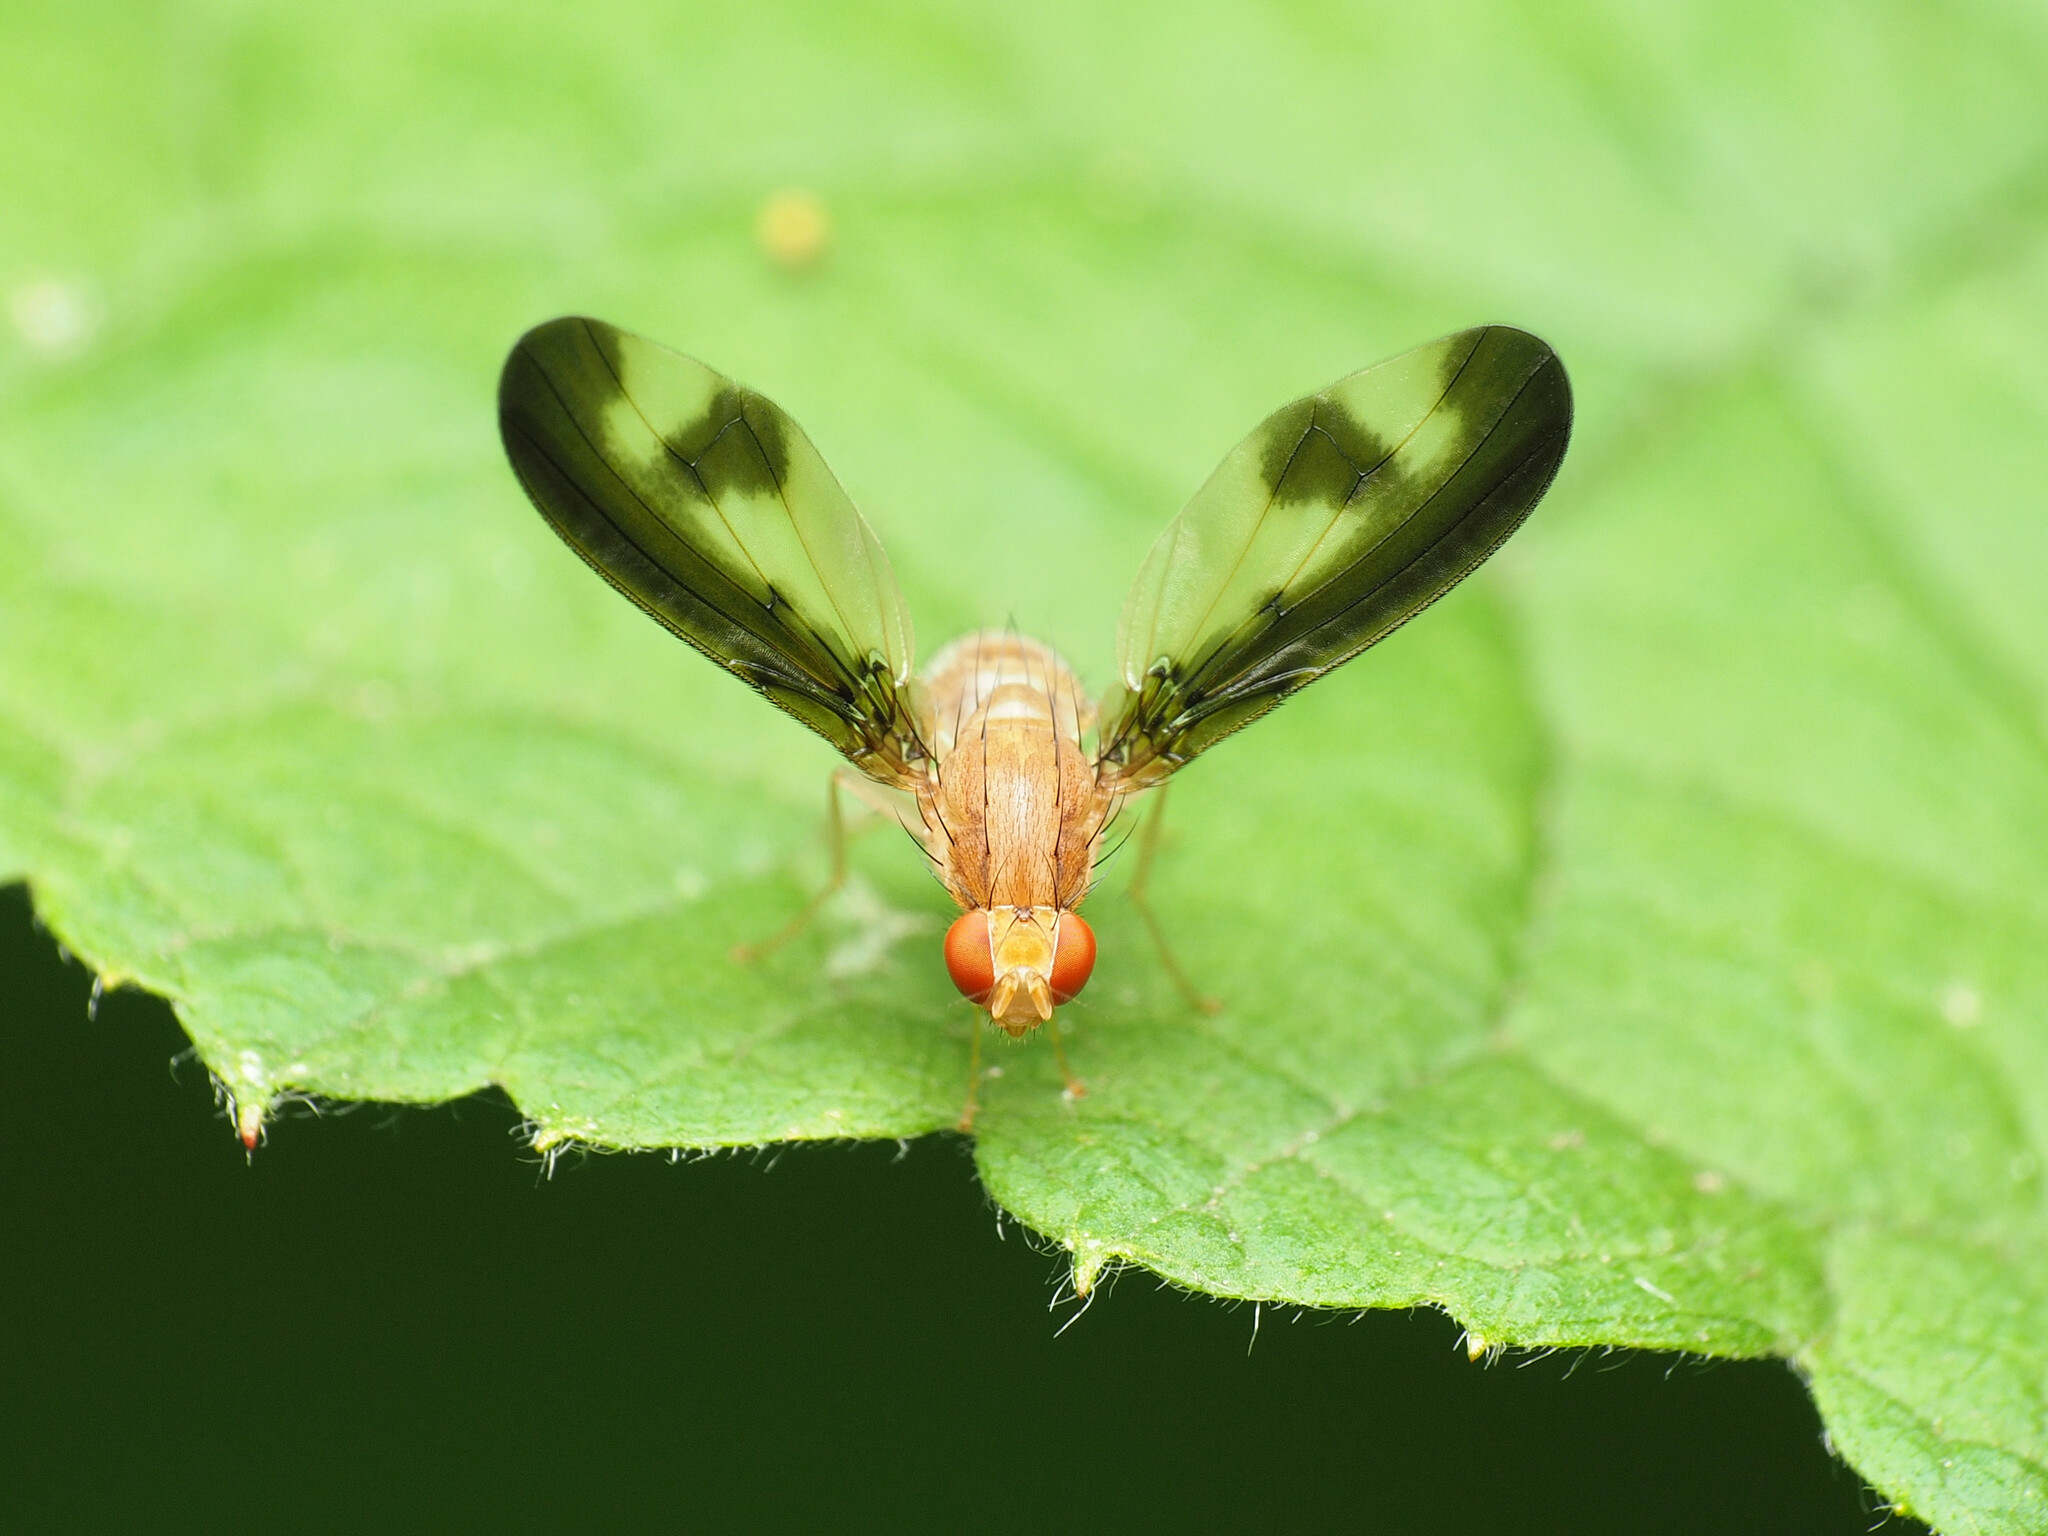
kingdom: Animalia
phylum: Arthropoda
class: Insecta
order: Diptera
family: Pallopteridae
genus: Toxonevra
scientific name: Toxonevra superba
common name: Antlered flutter fly
